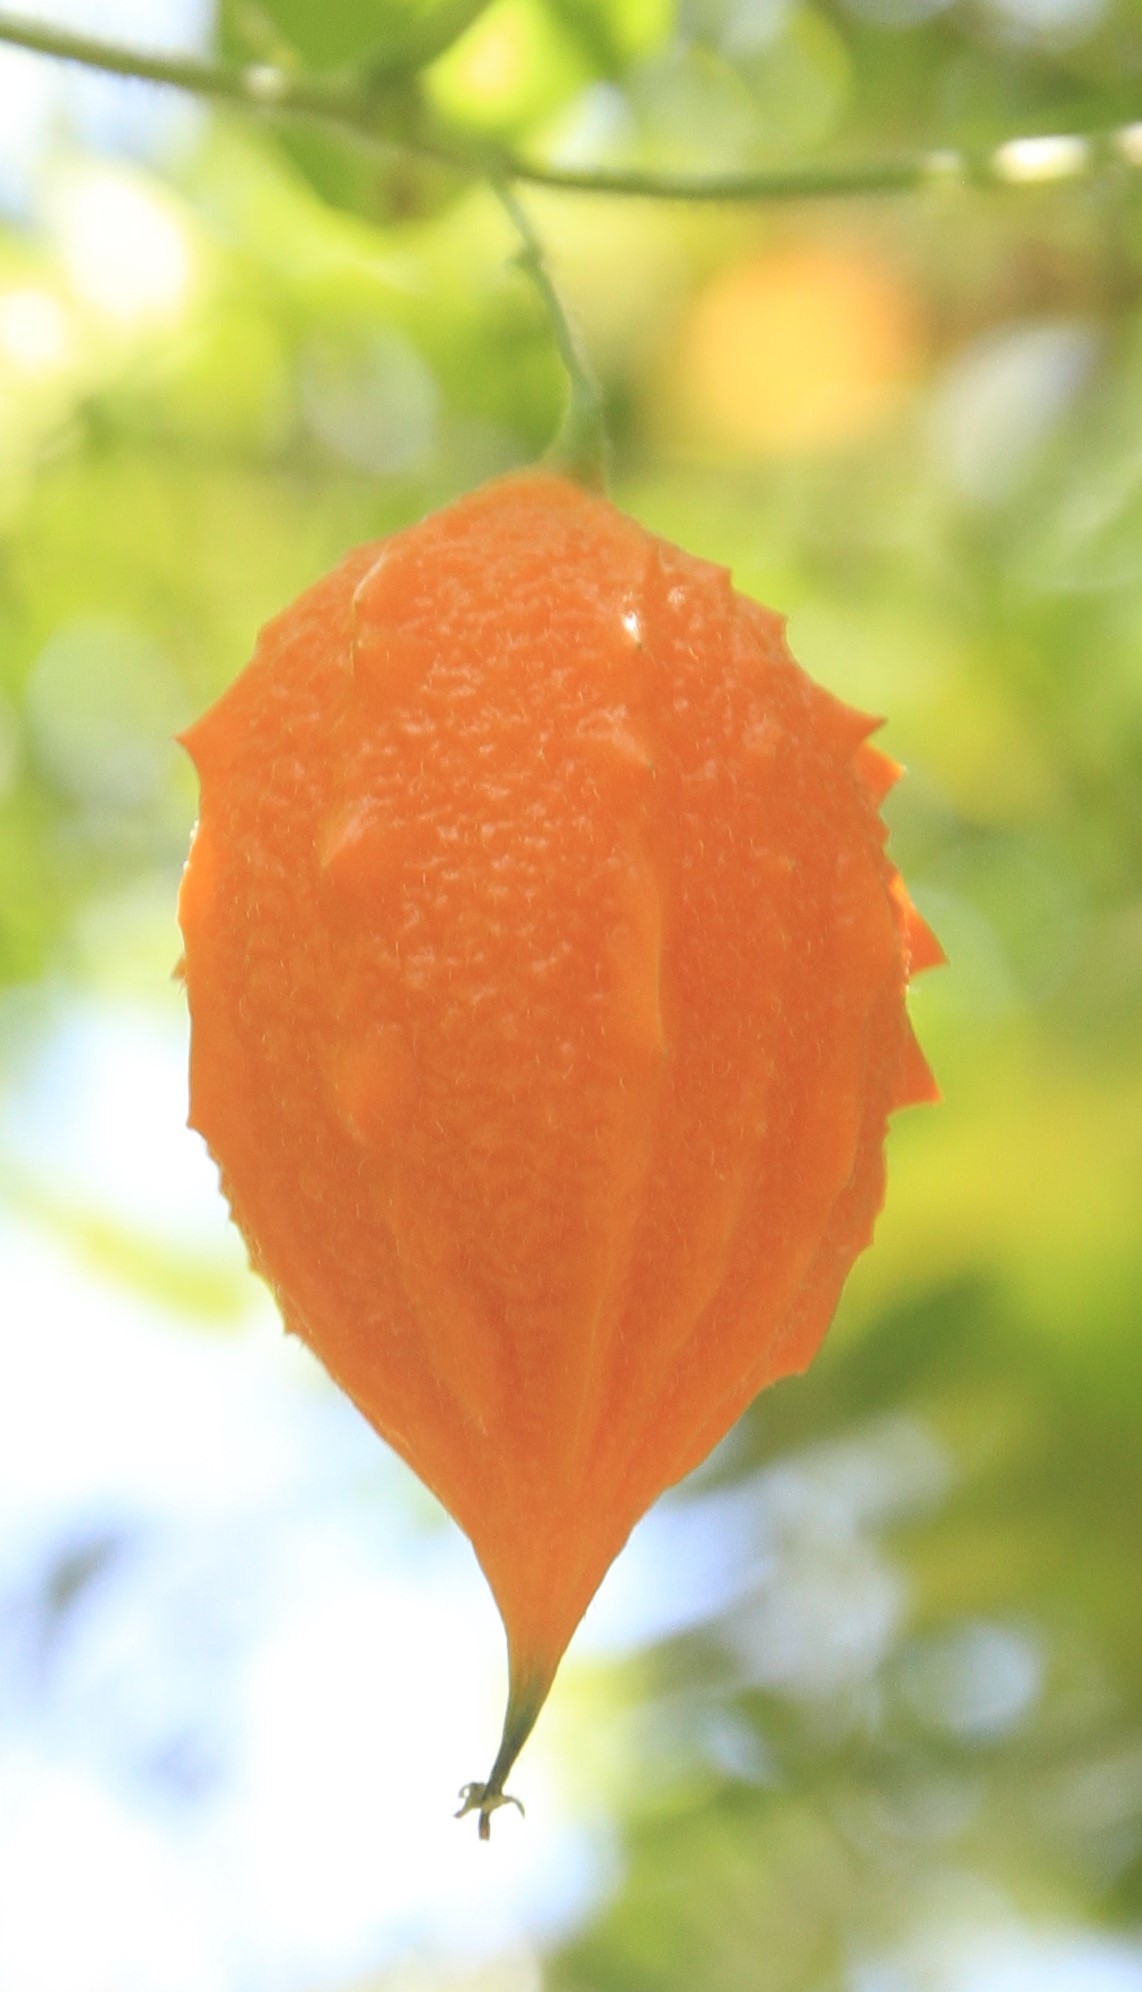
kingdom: Plantae
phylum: Tracheophyta
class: Magnoliopsida
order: Cucurbitales
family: Cucurbitaceae
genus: Momordica
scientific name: Momordica charantia
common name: Balsampear
